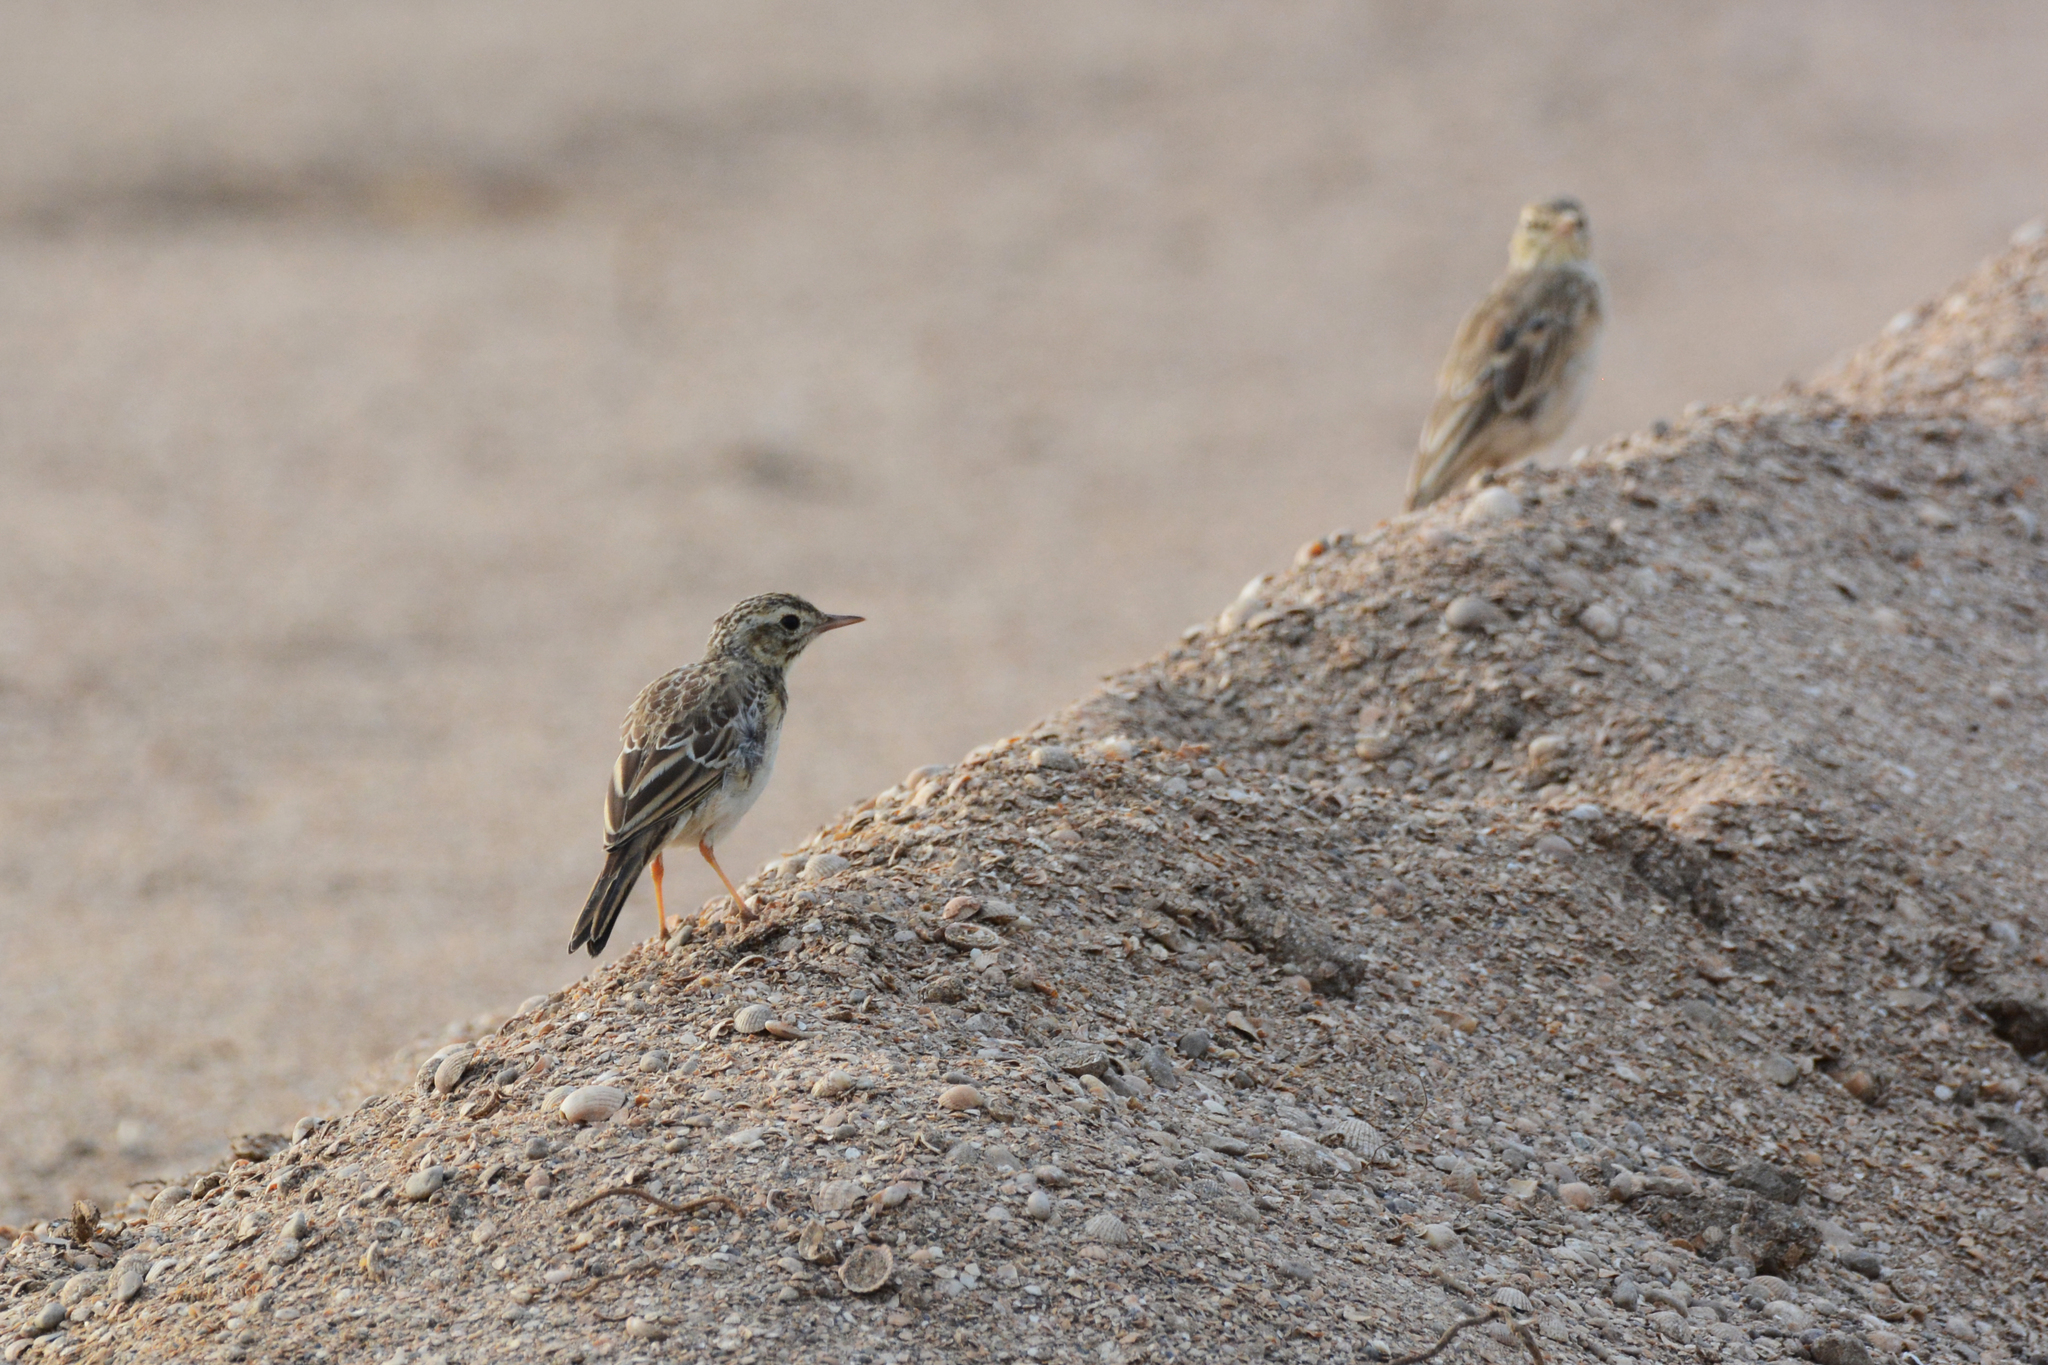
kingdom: Animalia
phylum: Chordata
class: Aves
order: Passeriformes
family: Motacillidae
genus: Anthus
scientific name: Anthus campestris
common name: Tawny pipit
